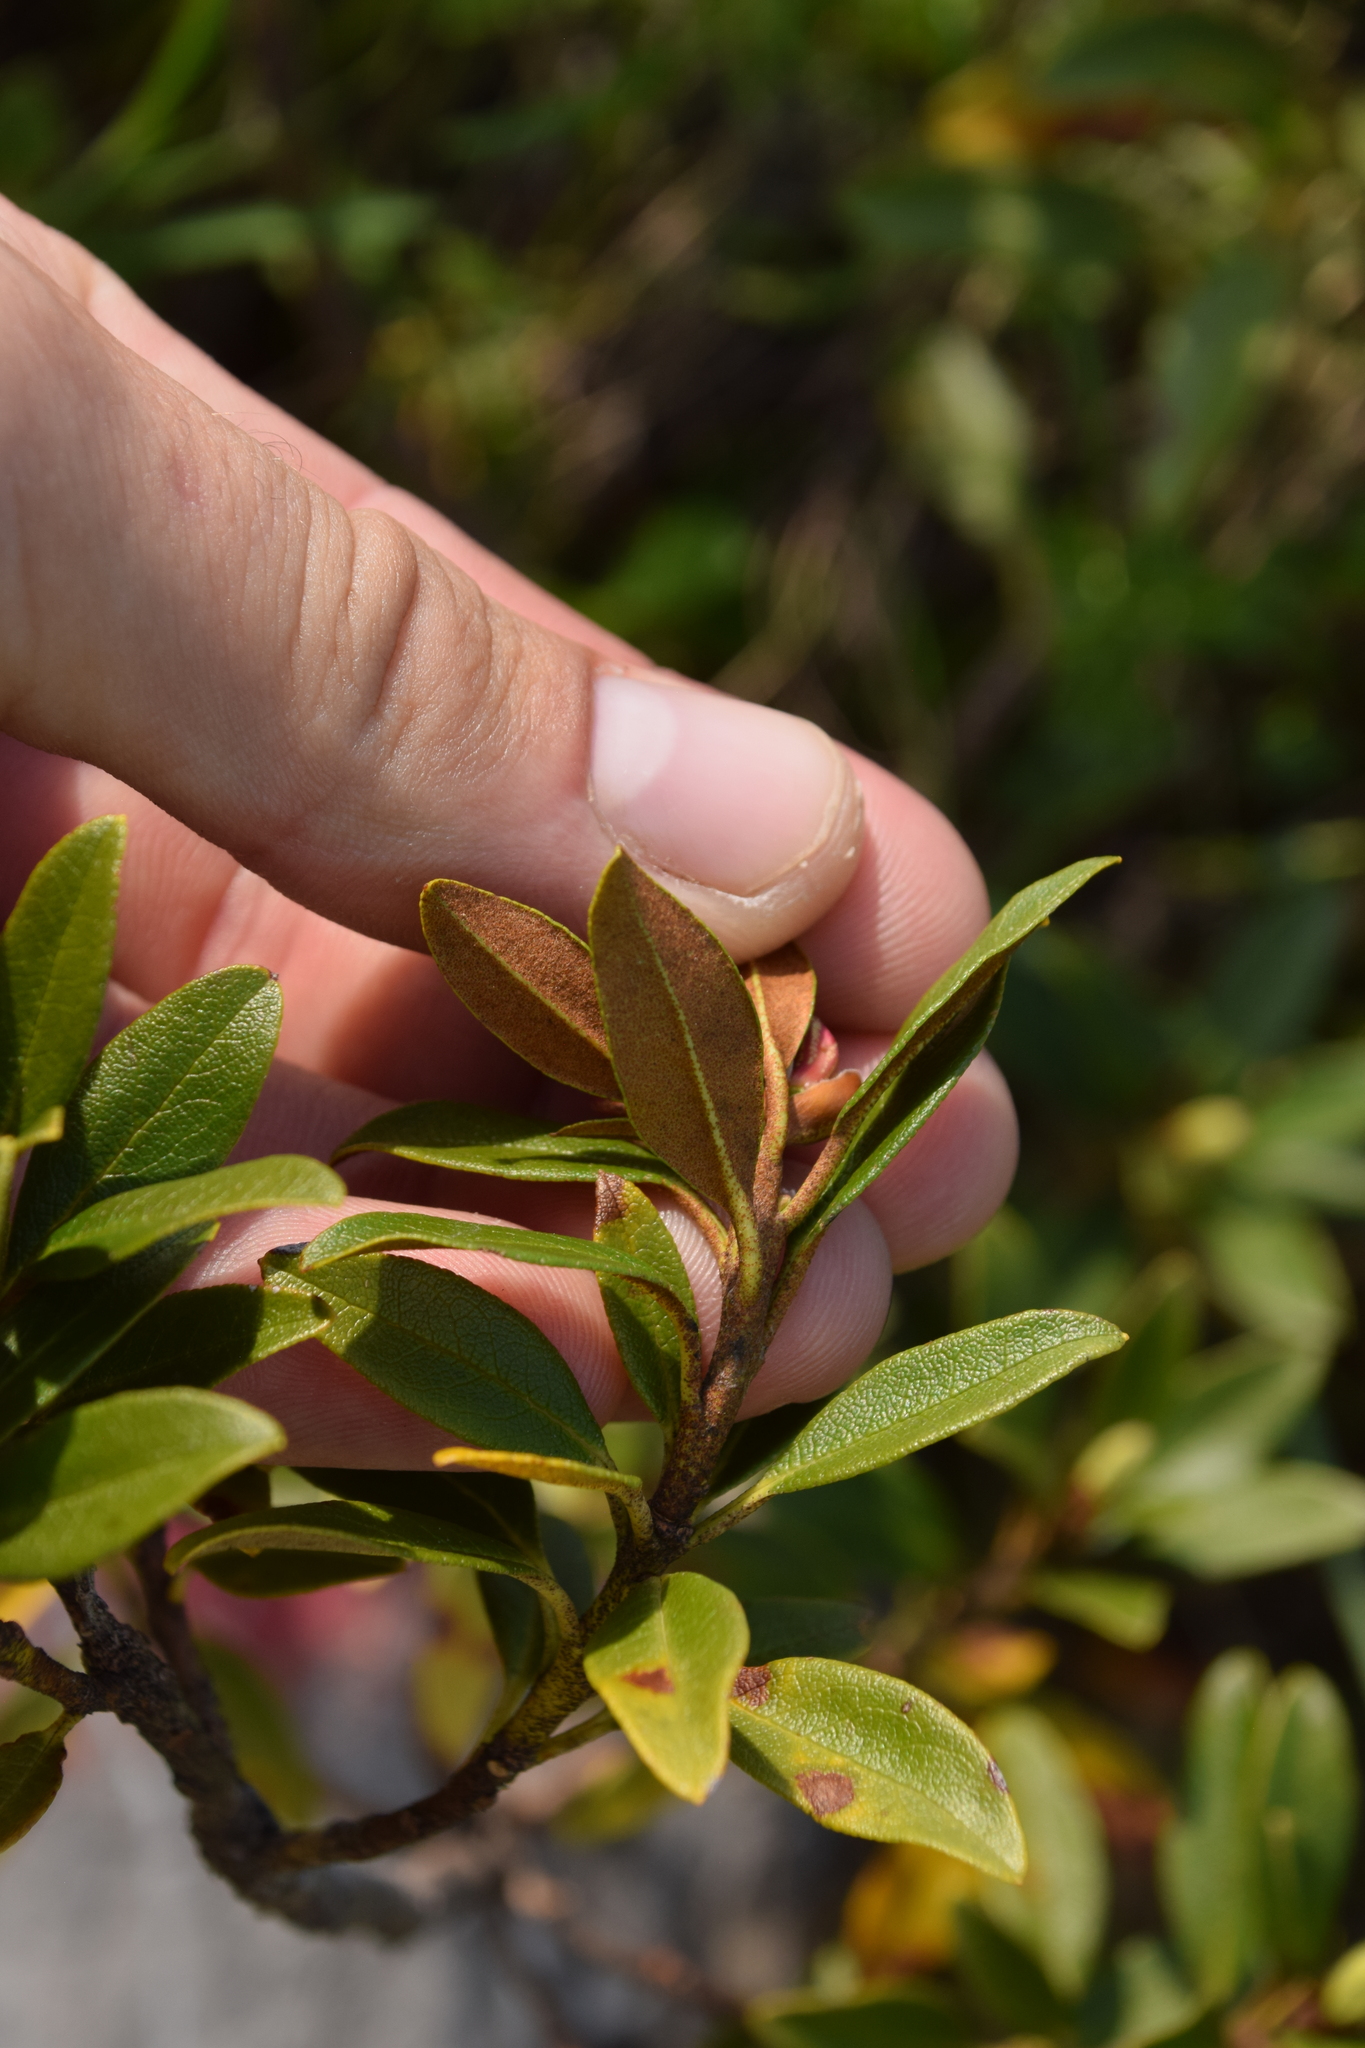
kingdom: Plantae
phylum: Tracheophyta
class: Magnoliopsida
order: Ericales
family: Ericaceae
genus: Rhododendron
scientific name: Rhododendron ferrugineum
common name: Alpenrose
